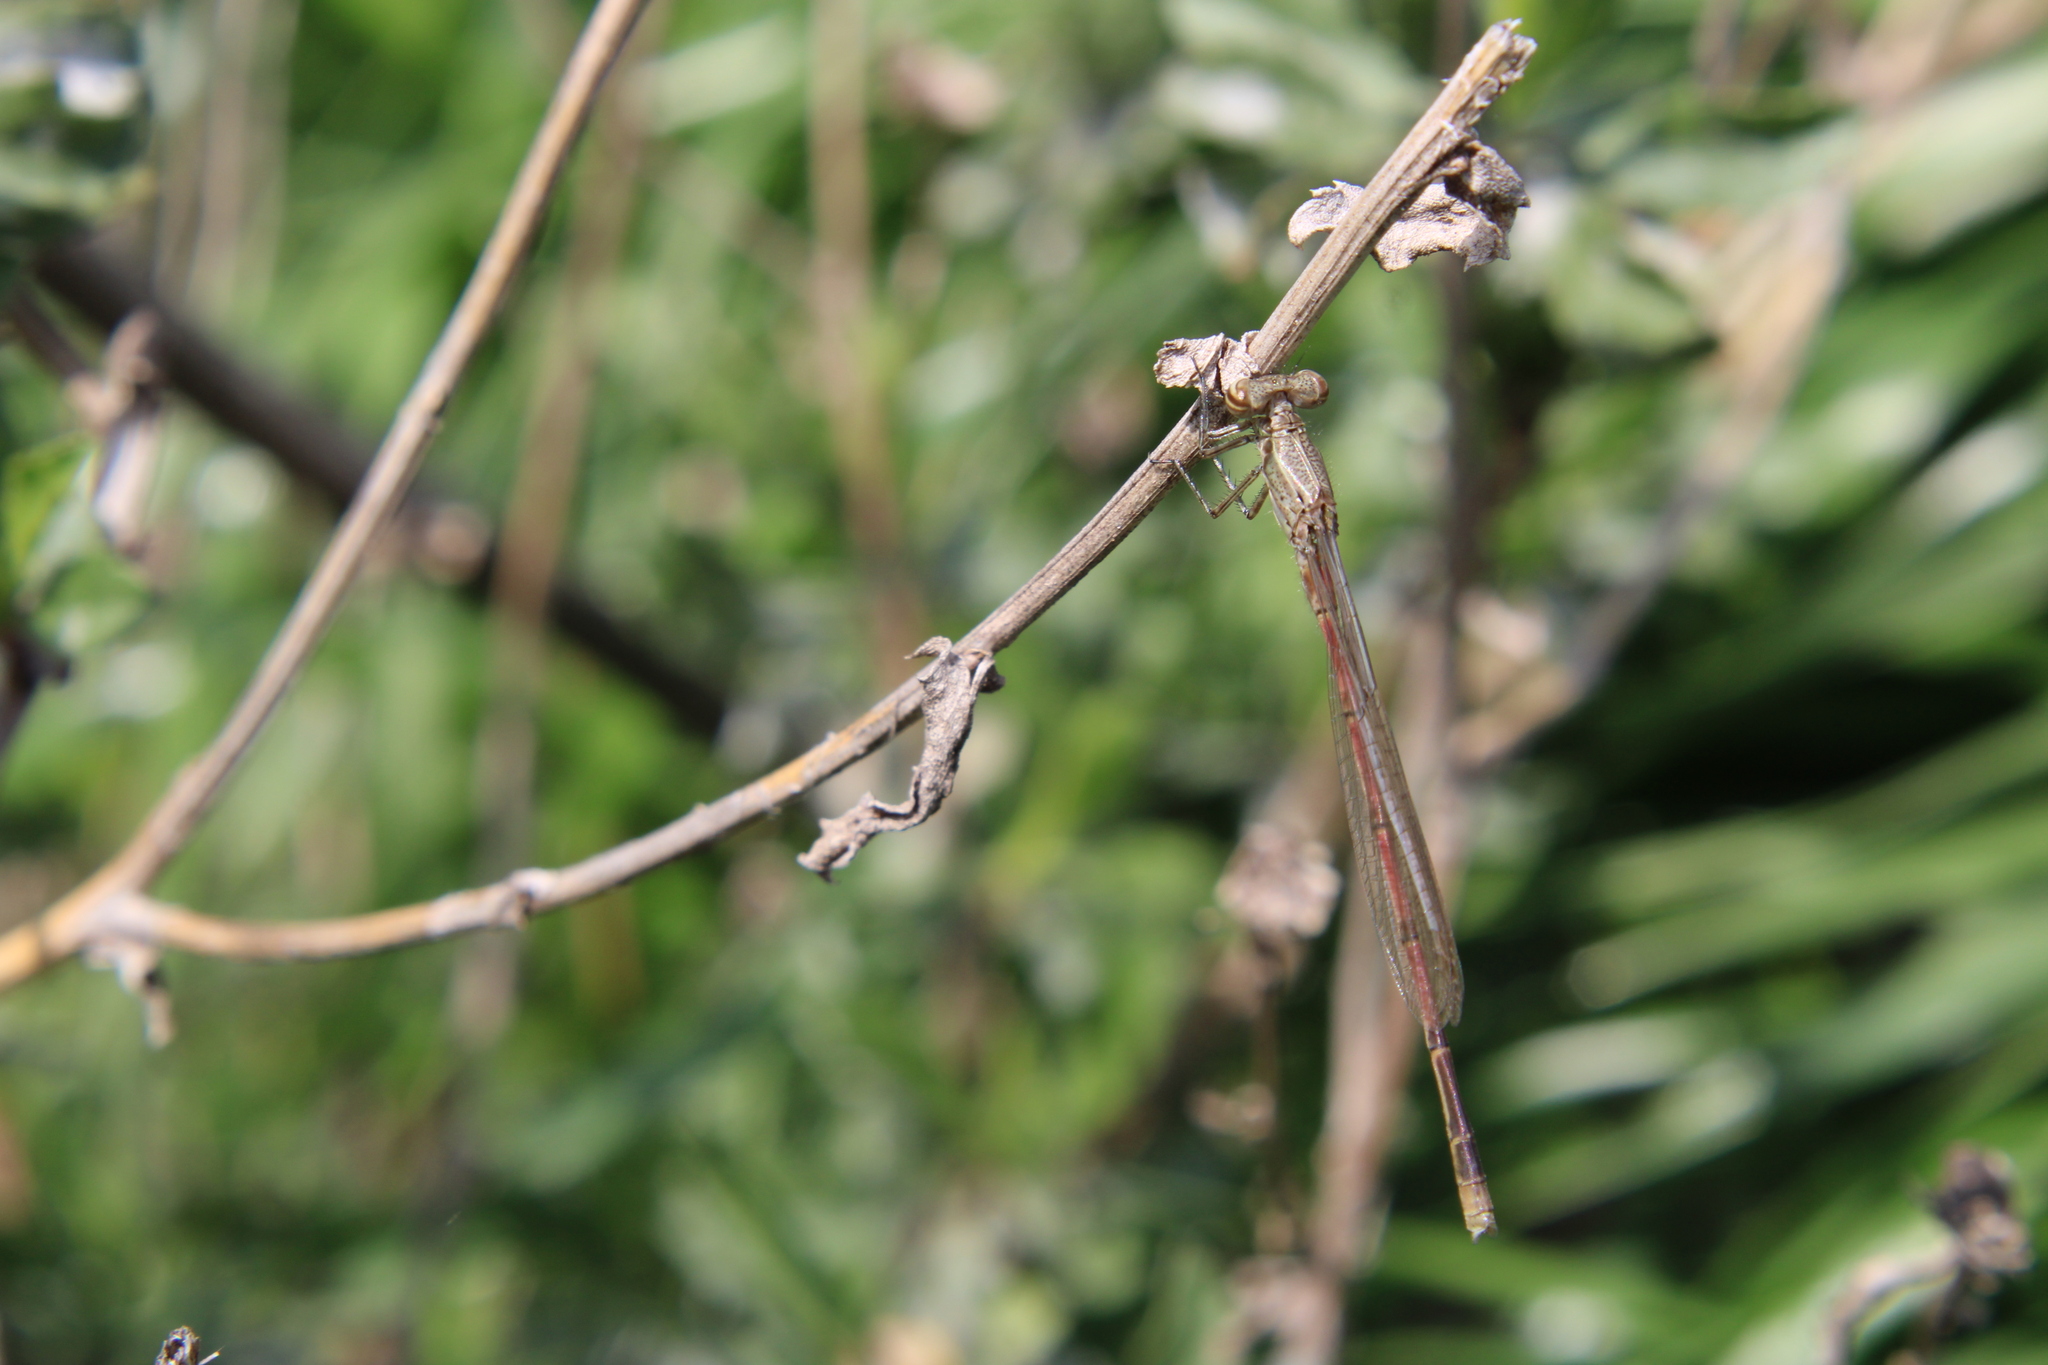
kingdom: Animalia
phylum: Arthropoda
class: Insecta
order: Odonata
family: Coenagrionidae
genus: Oxyagrion
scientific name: Oxyagrion terminale
